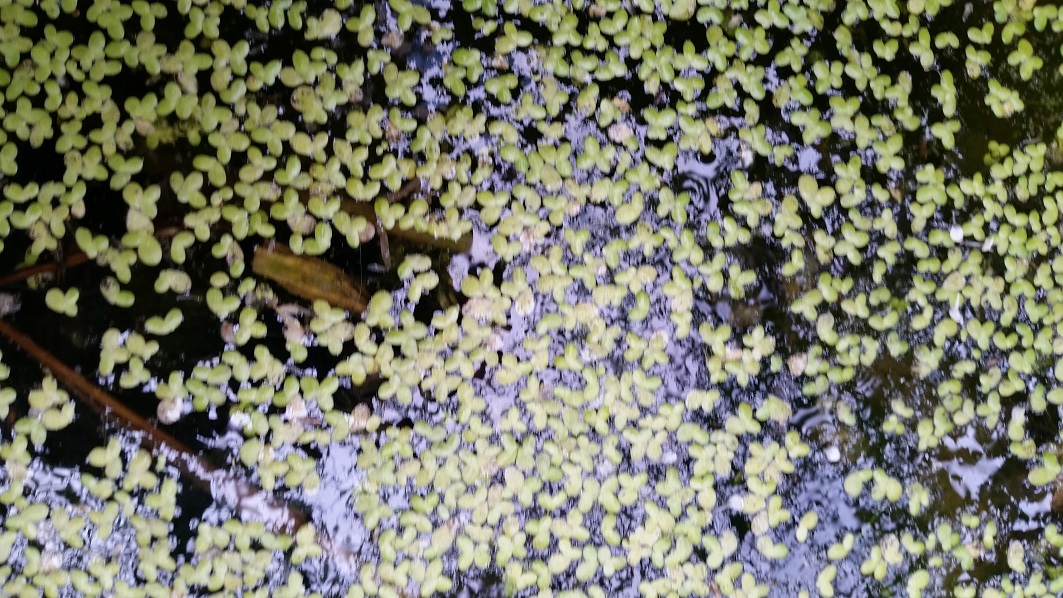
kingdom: Plantae
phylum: Tracheophyta
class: Liliopsida
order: Alismatales
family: Araceae
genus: Lemna
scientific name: Lemna minor
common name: Common duckweed
